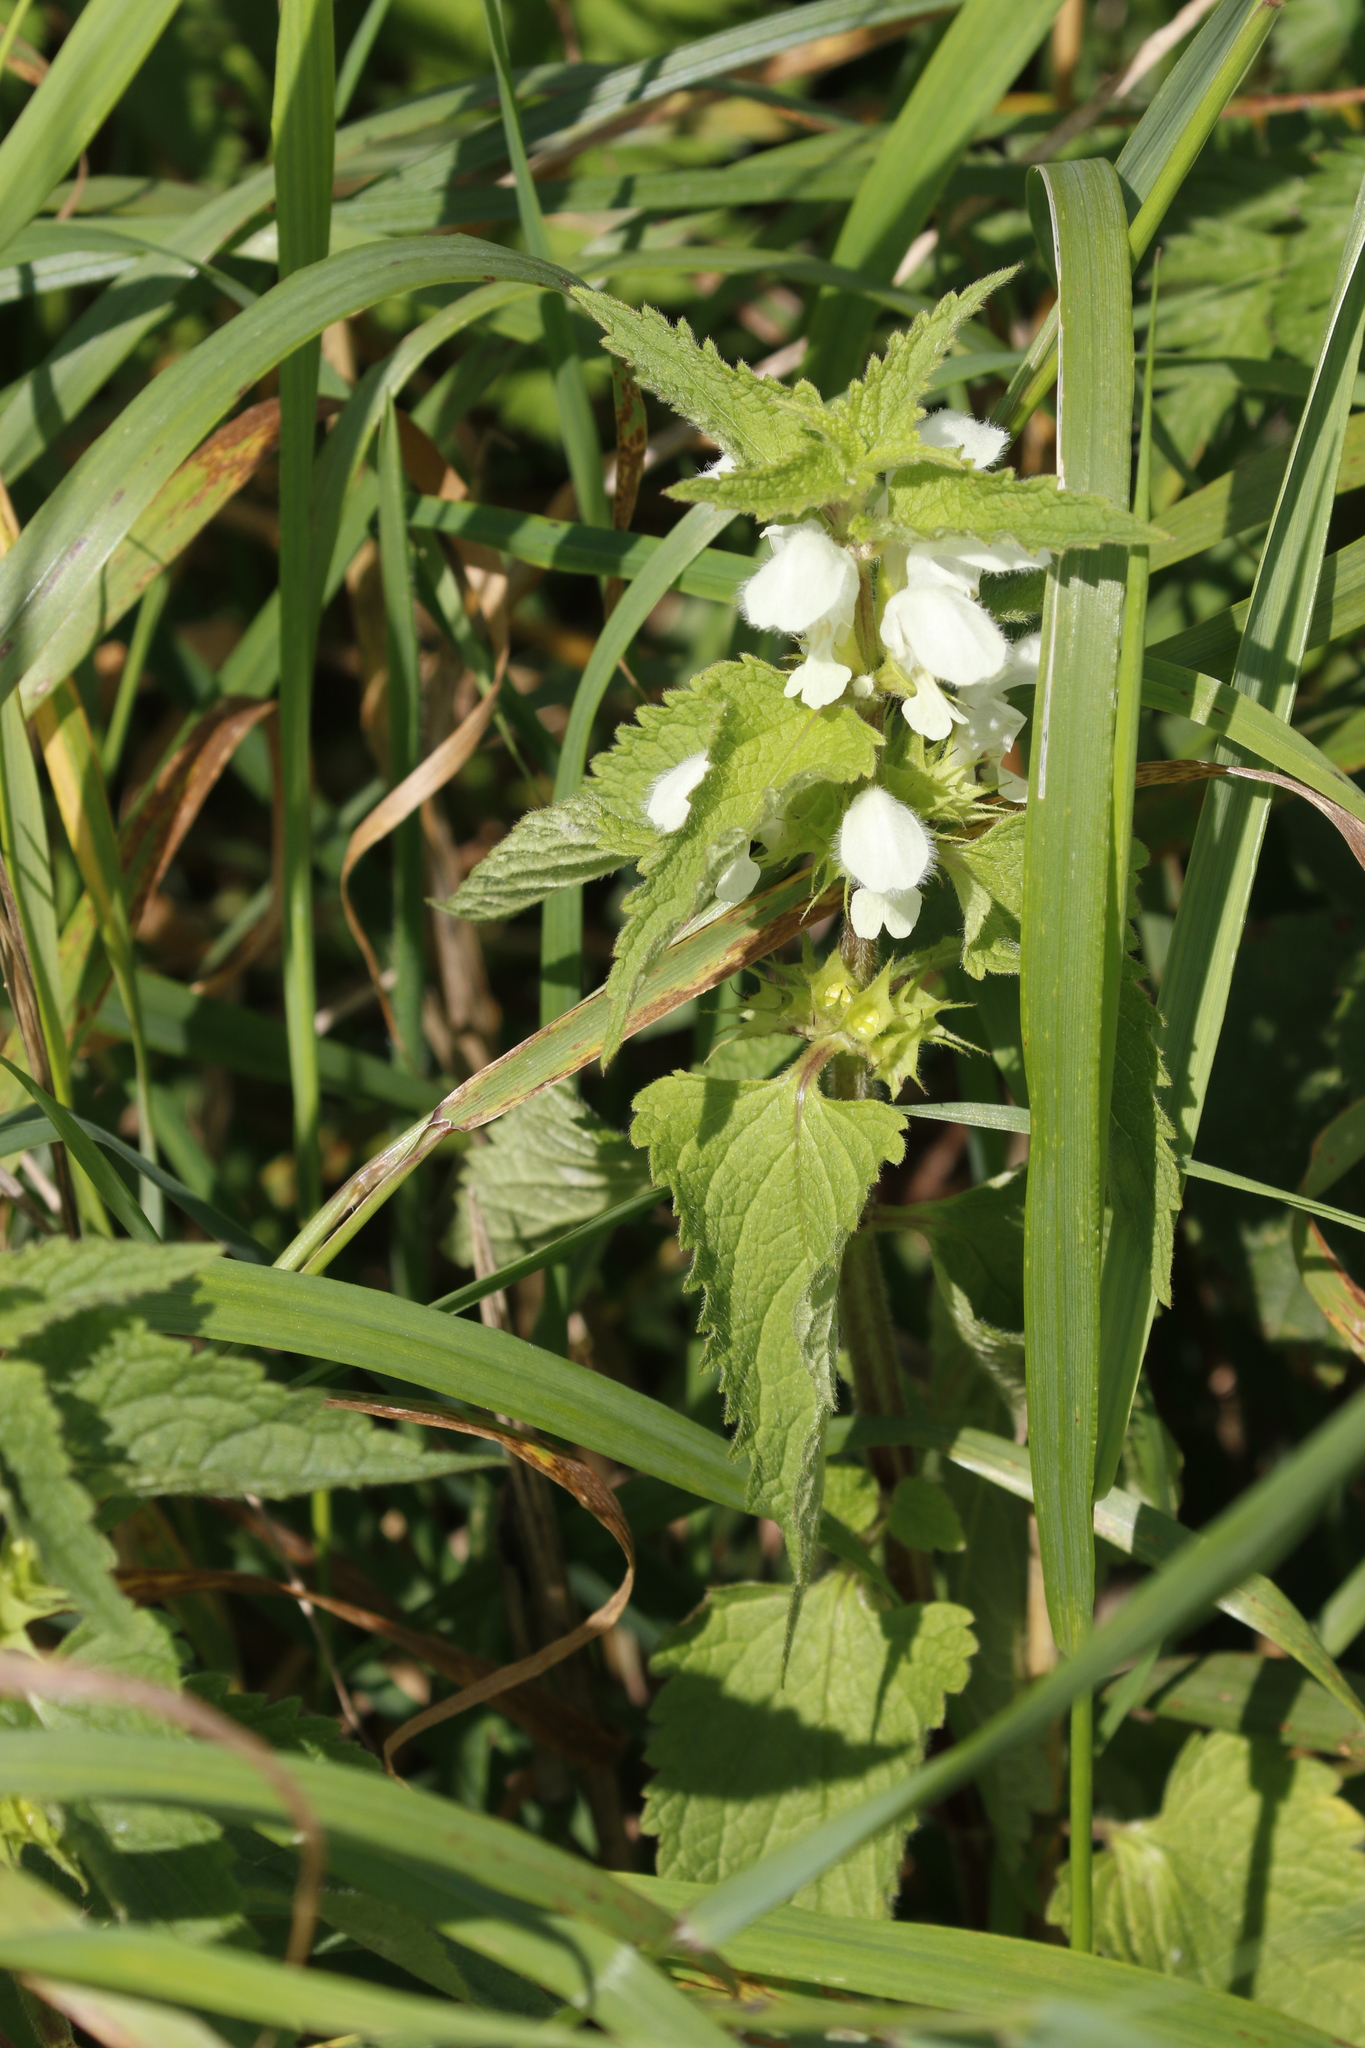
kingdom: Plantae
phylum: Tracheophyta
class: Magnoliopsida
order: Lamiales
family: Lamiaceae
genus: Lamium
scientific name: Lamium album
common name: White dead-nettle
